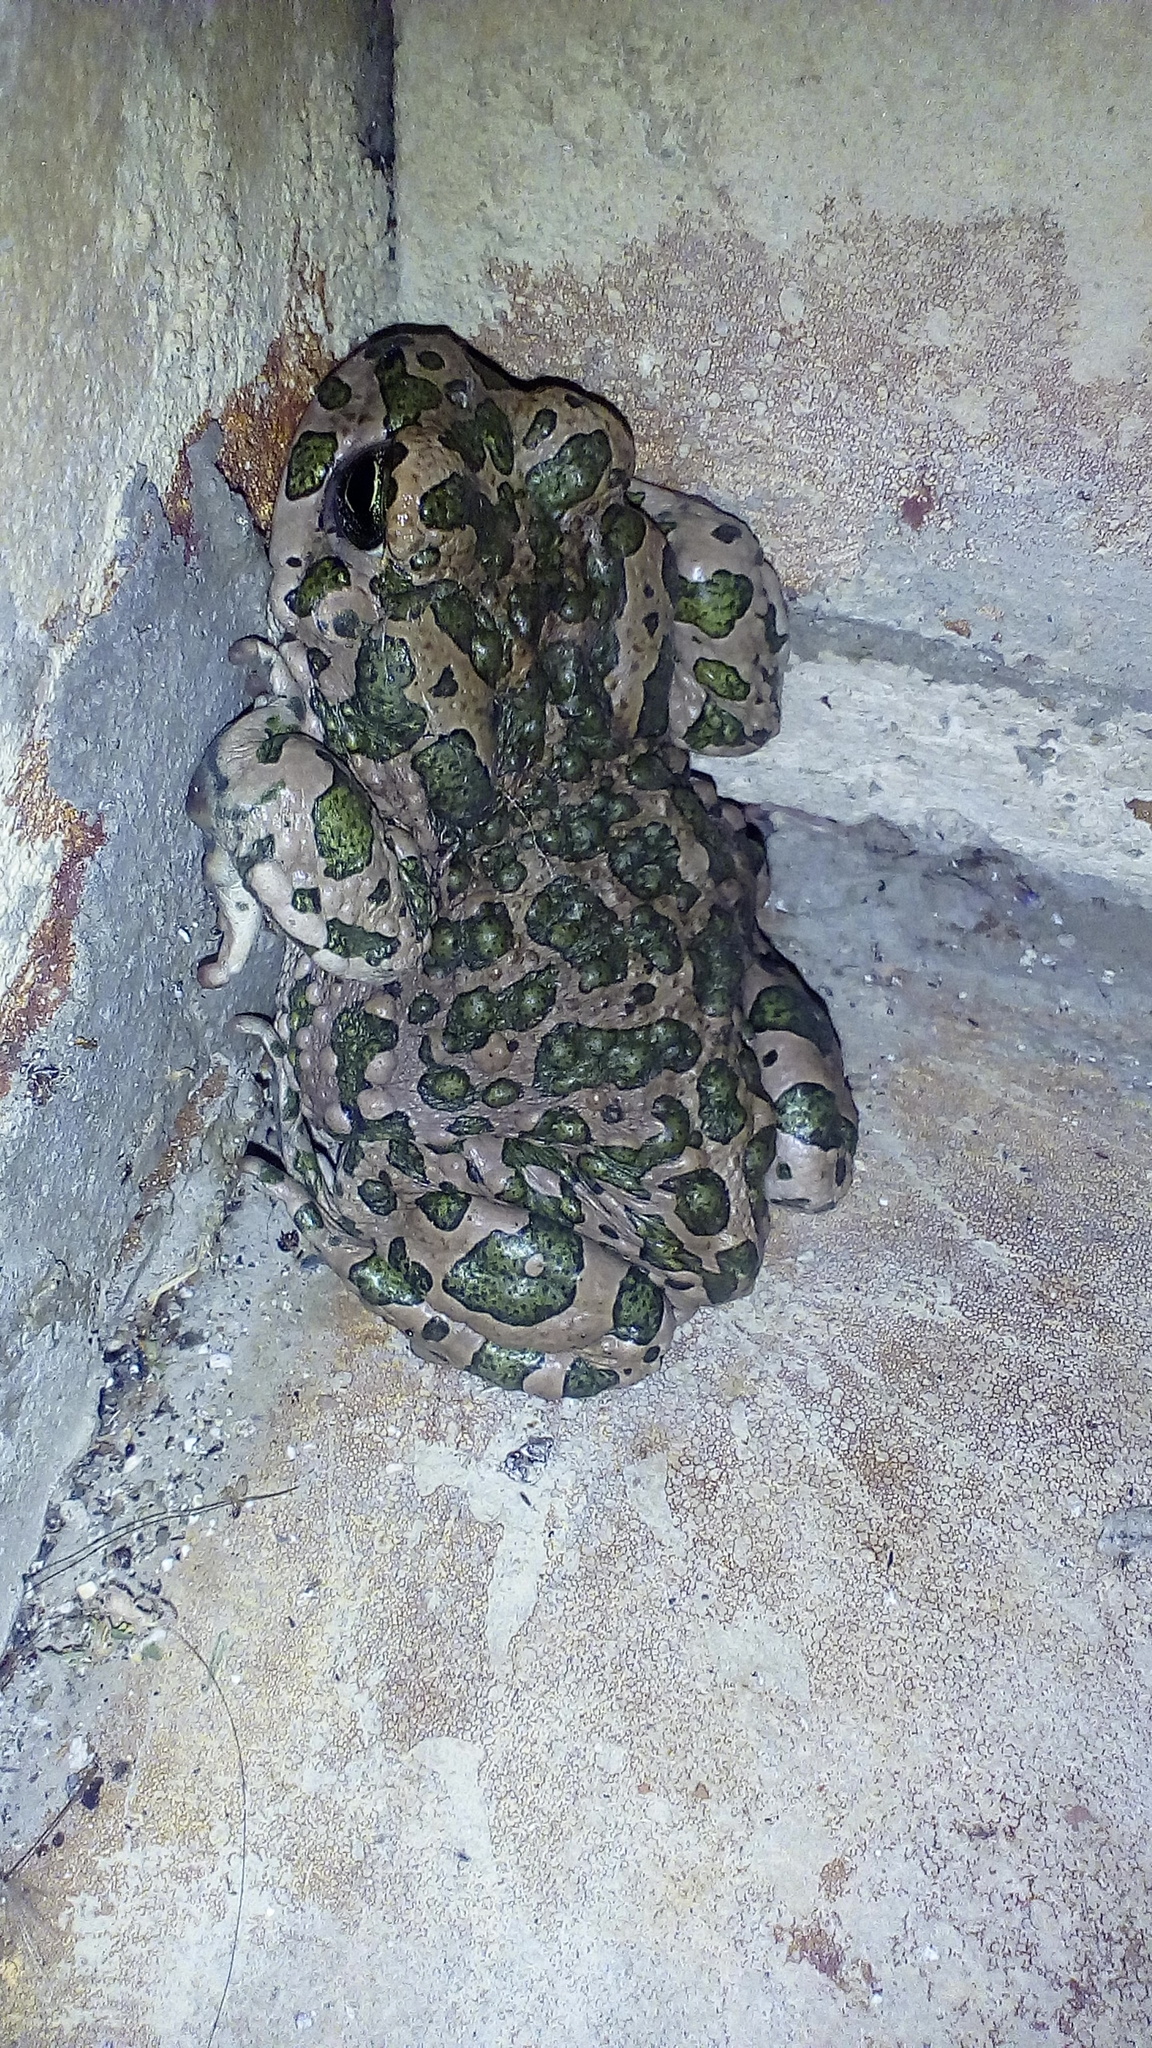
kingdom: Animalia
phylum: Chordata
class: Amphibia
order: Anura
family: Bufonidae
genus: Bufotes
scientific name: Bufotes viridis
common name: European green toad
